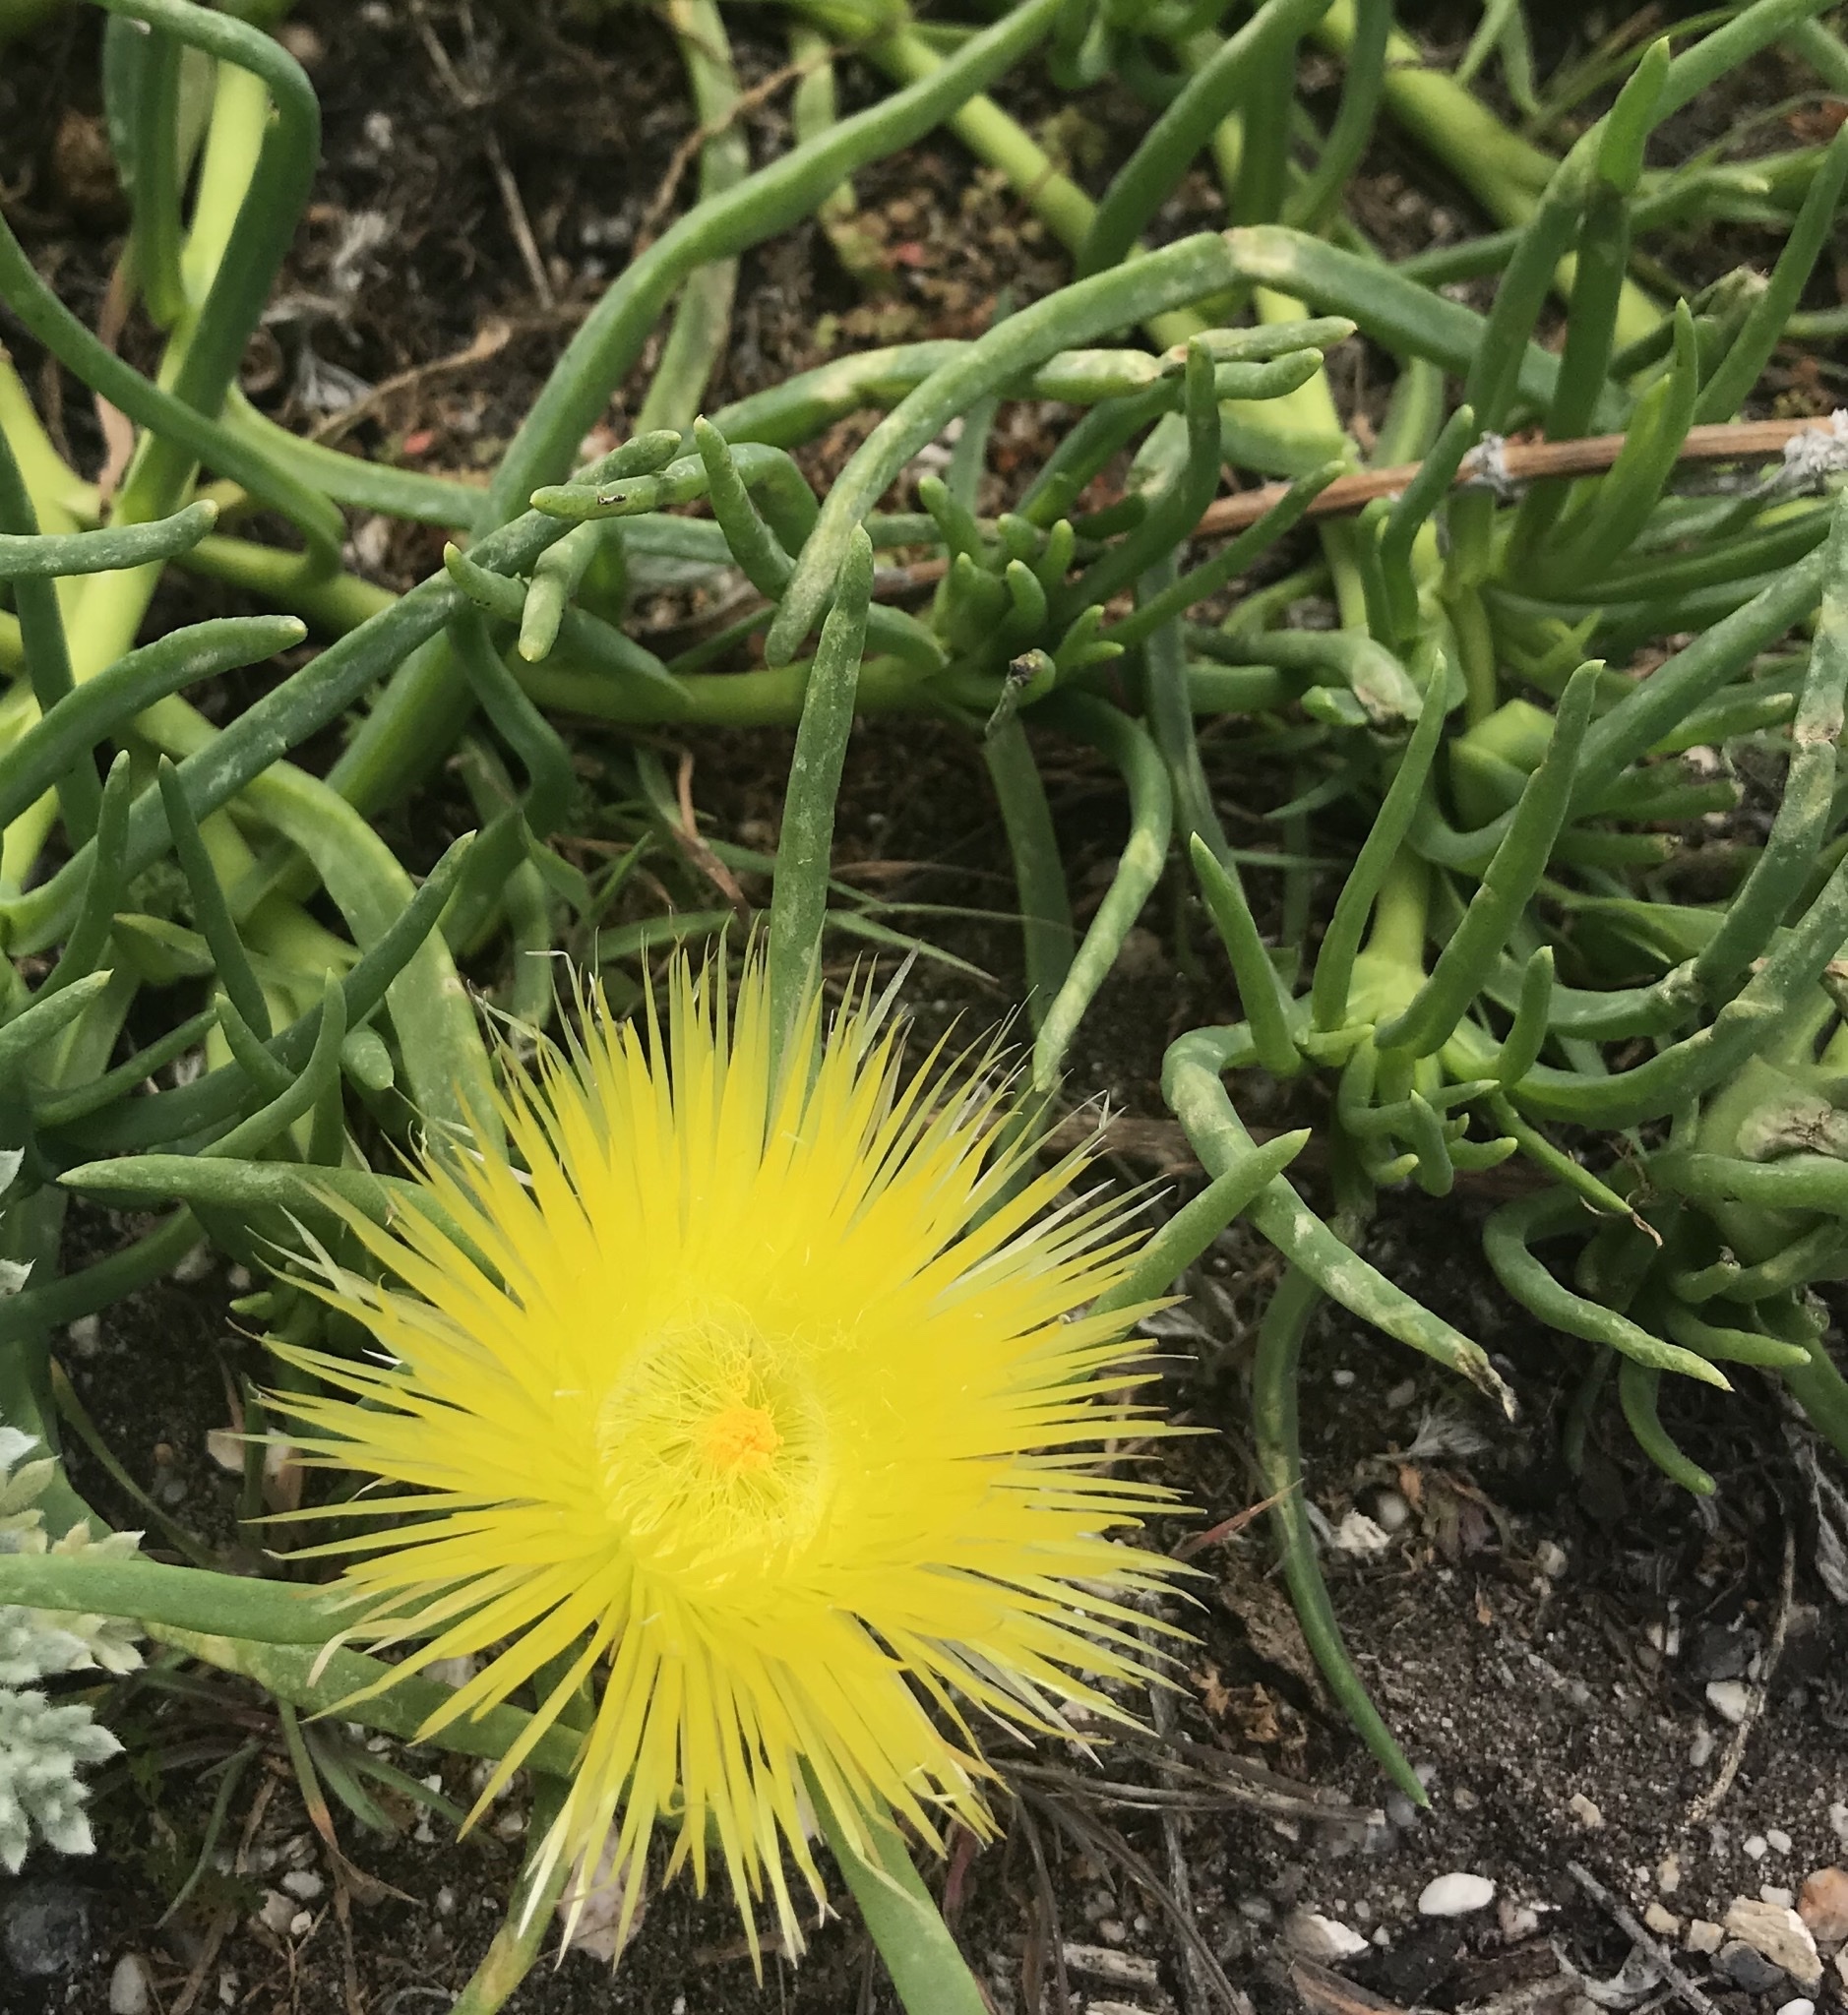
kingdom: Plantae
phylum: Tracheophyta
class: Magnoliopsida
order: Caryophyllales
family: Aizoaceae
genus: Conicosia
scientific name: Conicosia pugioniformis
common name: Narrow-leaved iceplant
